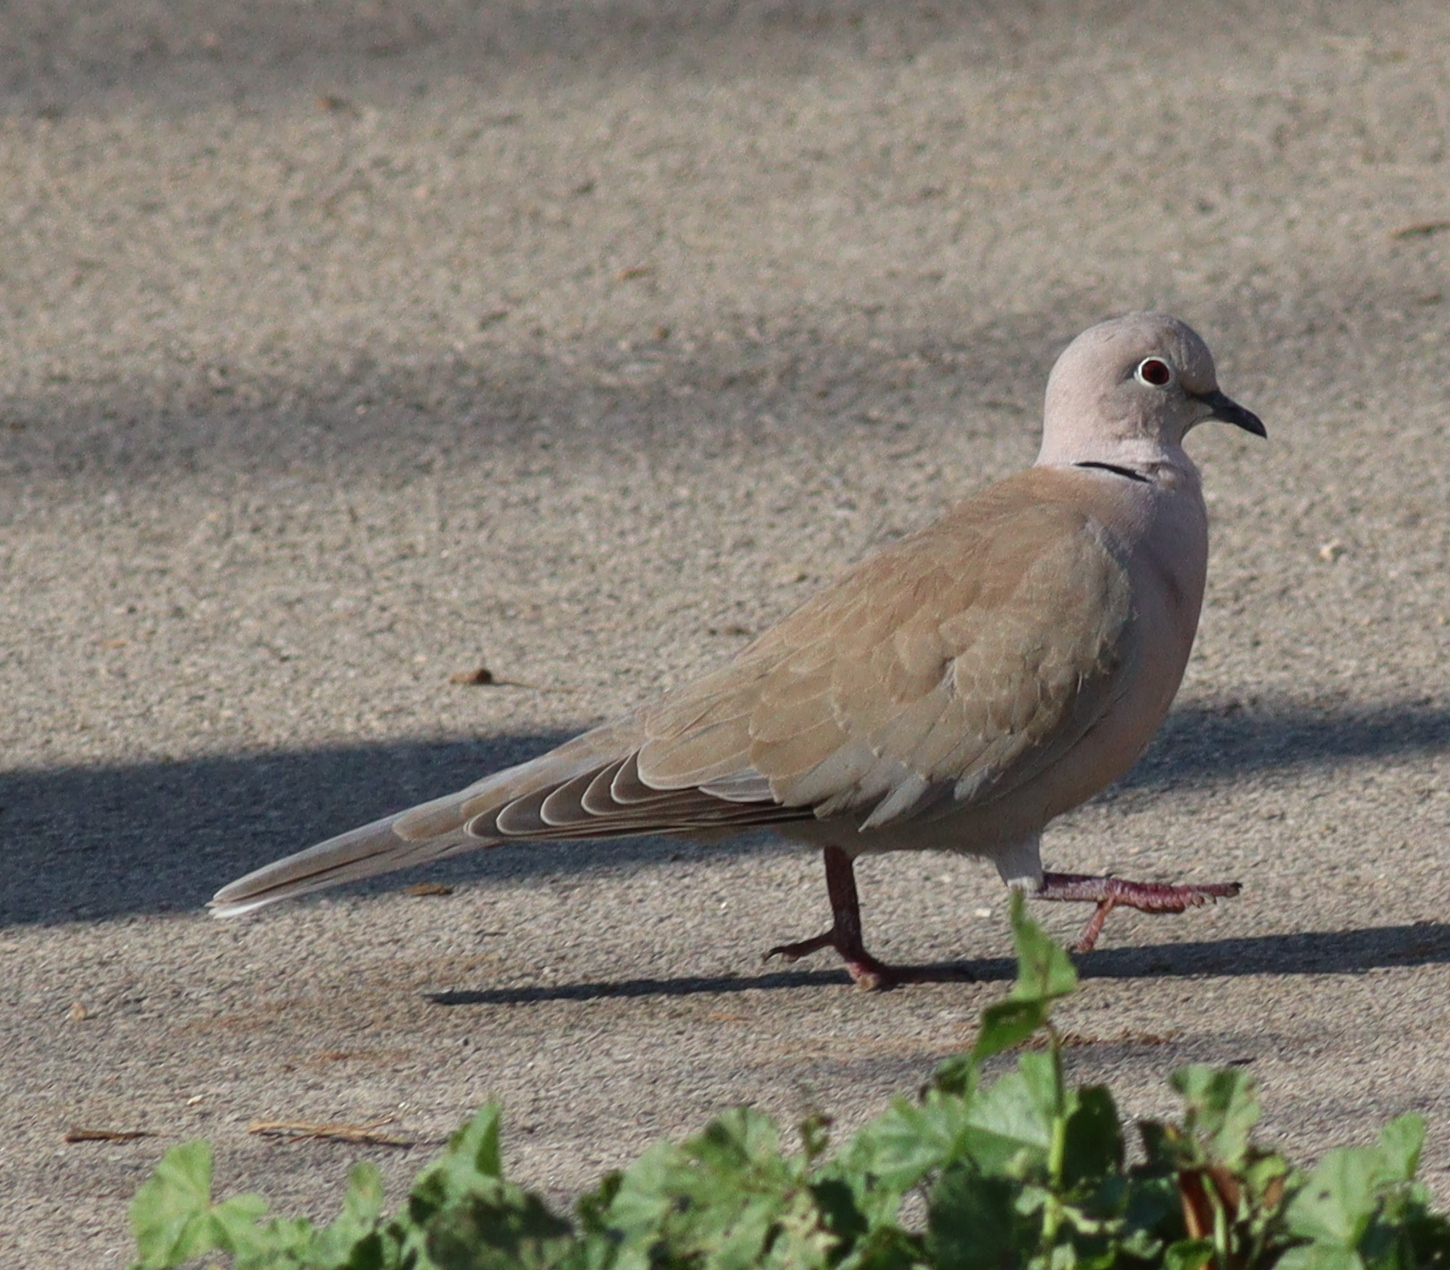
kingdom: Animalia
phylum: Chordata
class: Aves
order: Columbiformes
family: Columbidae
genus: Streptopelia
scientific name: Streptopelia decaocto
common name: Eurasian collared dove
